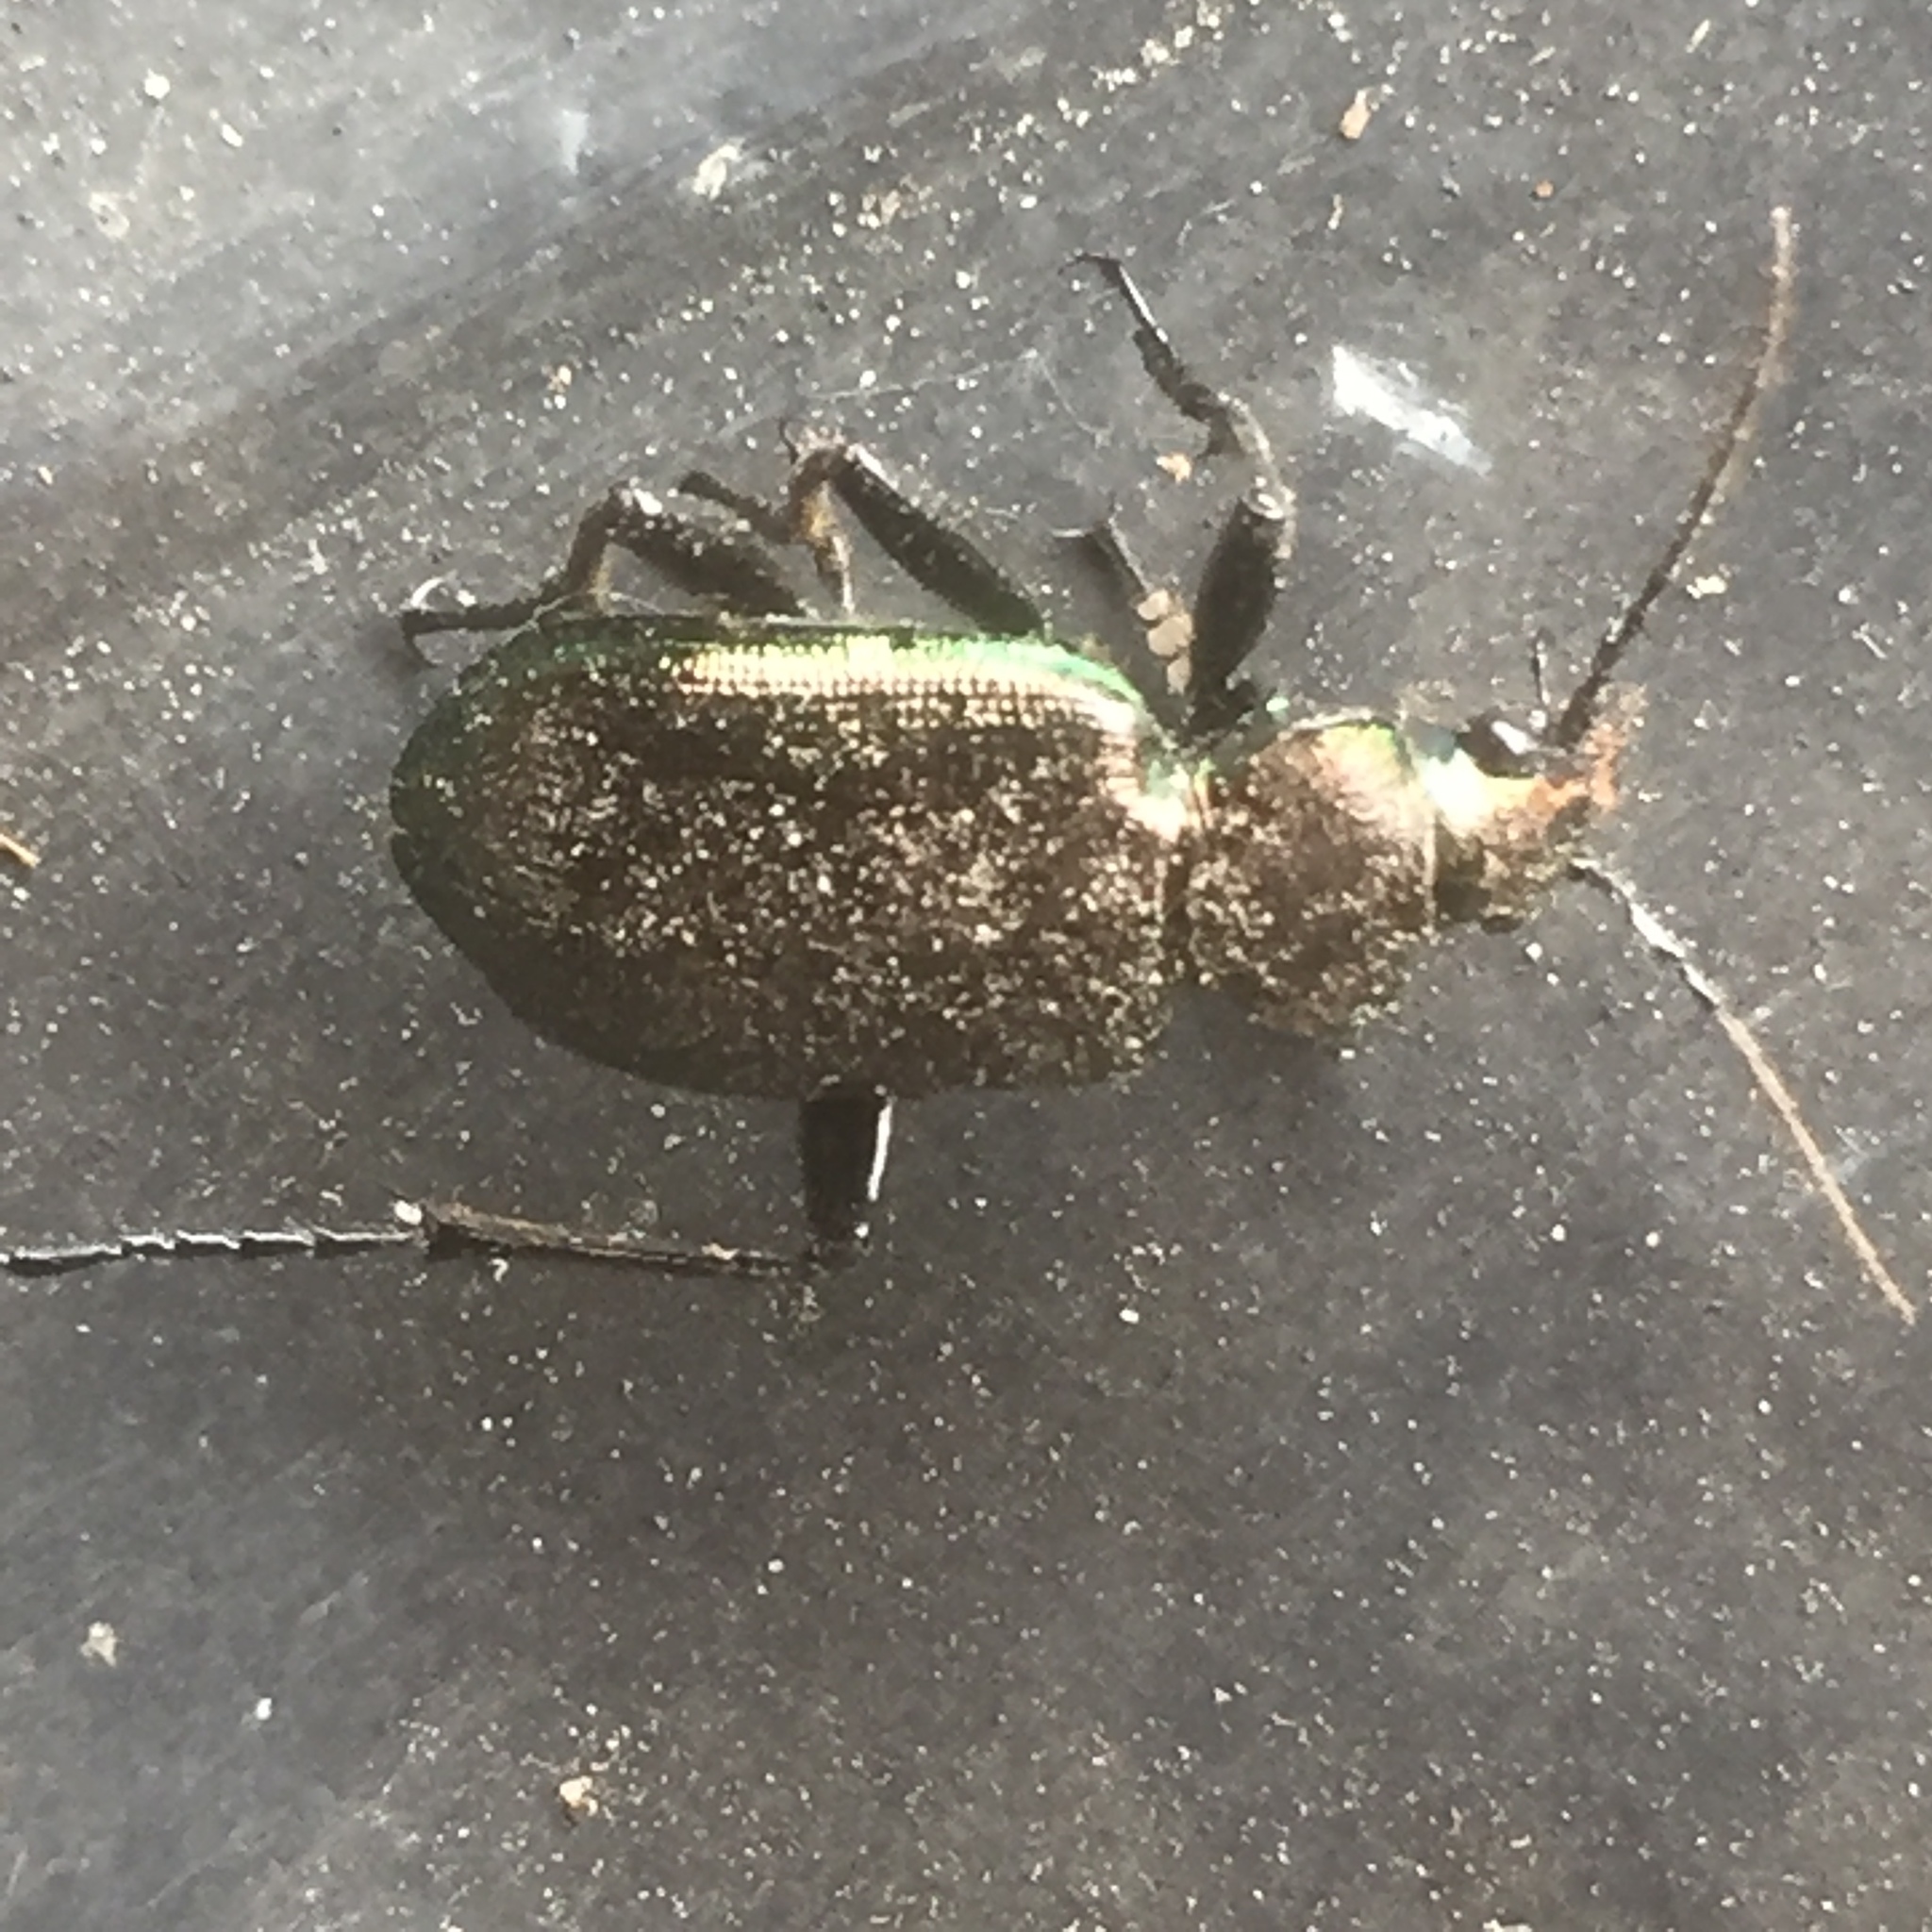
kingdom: Animalia
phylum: Arthropoda
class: Insecta
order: Coleoptera
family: Carabidae
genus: Calosoma
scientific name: Calosoma inquisitor
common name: Caterpillar-hunter
